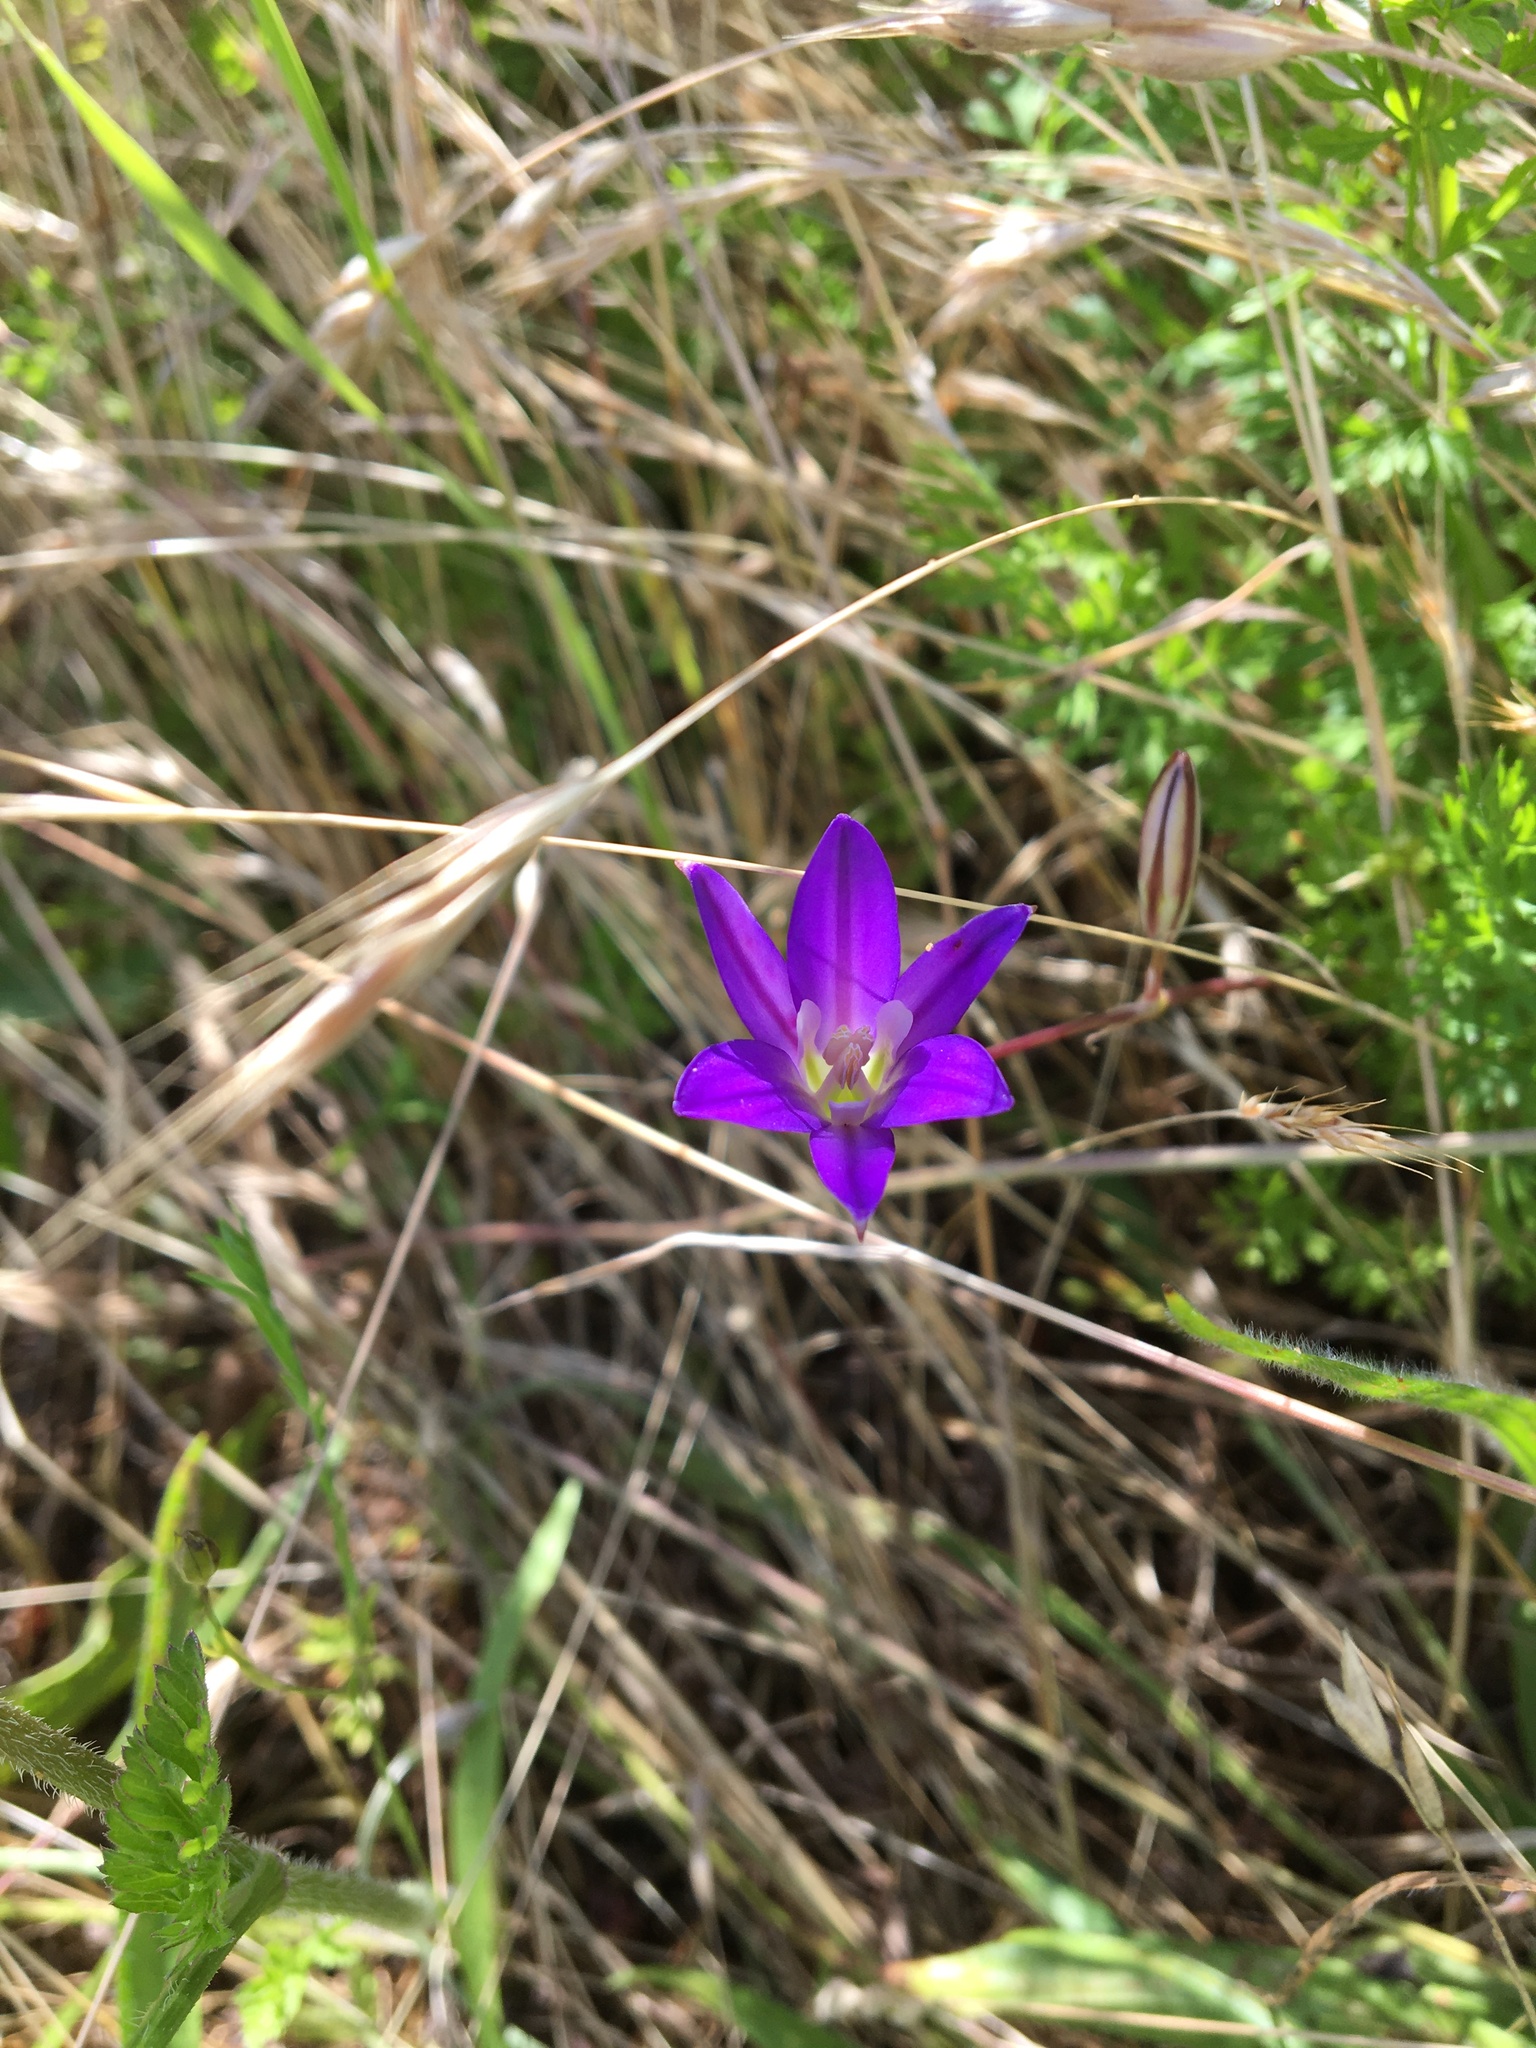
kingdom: Plantae
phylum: Tracheophyta
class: Liliopsida
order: Asparagales
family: Asparagaceae
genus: Brodiaea
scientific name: Brodiaea elegans
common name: Elegant cluster-lily
